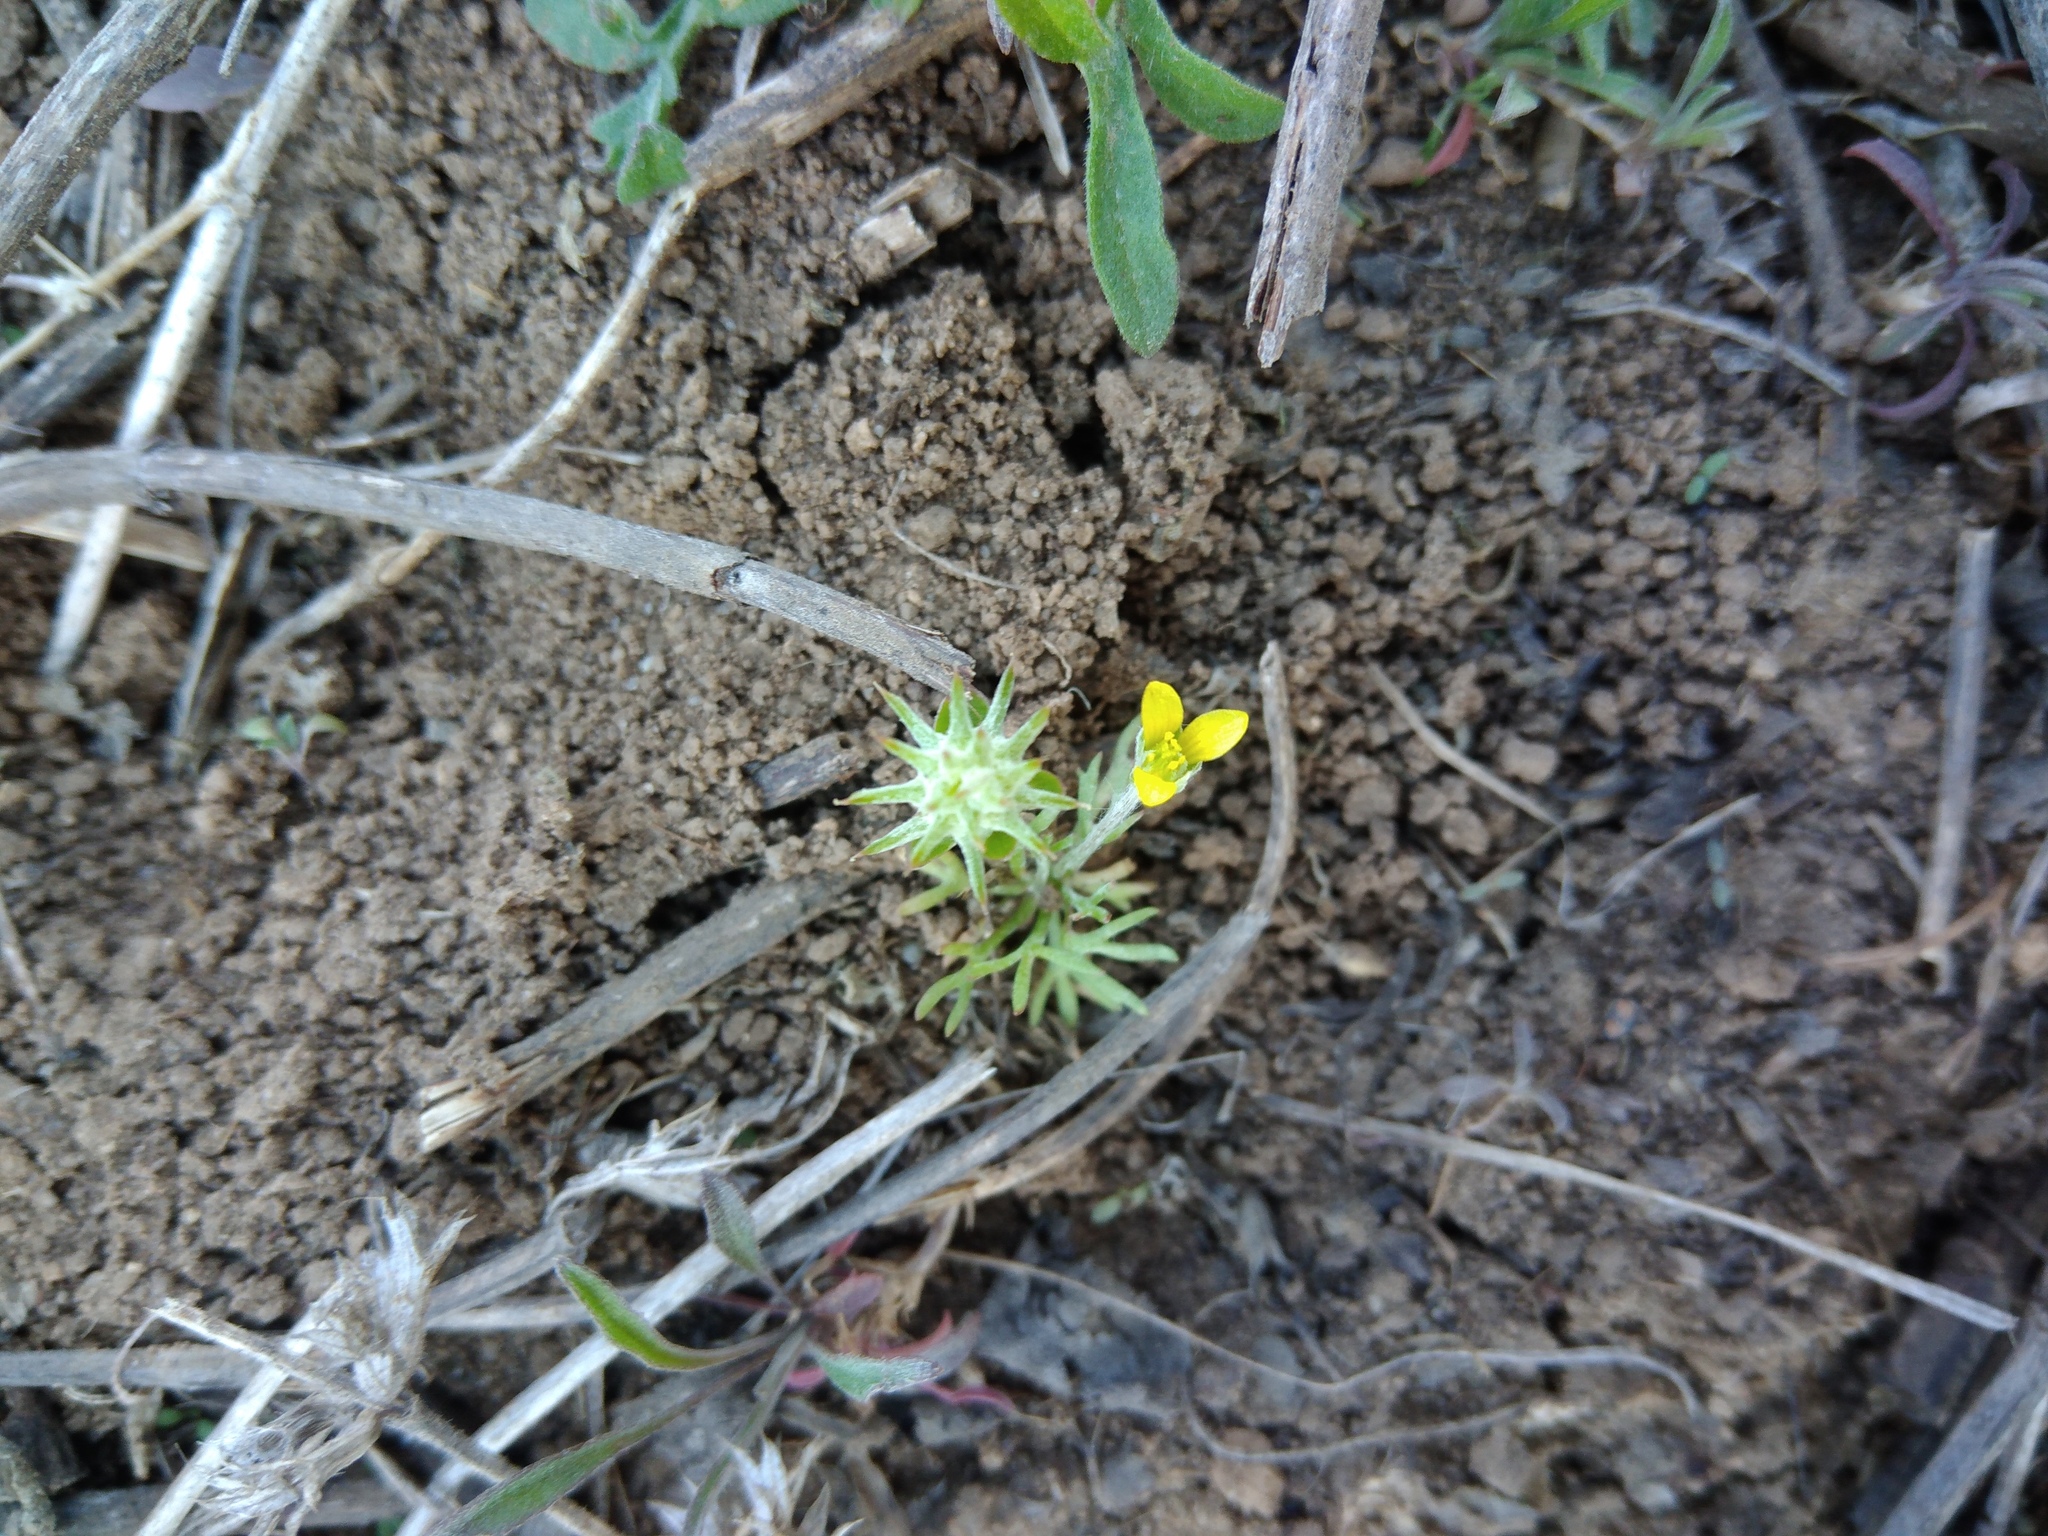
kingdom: Plantae
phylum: Tracheophyta
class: Magnoliopsida
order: Ranunculales
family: Ranunculaceae
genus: Ceratocephala
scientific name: Ceratocephala orthoceras
